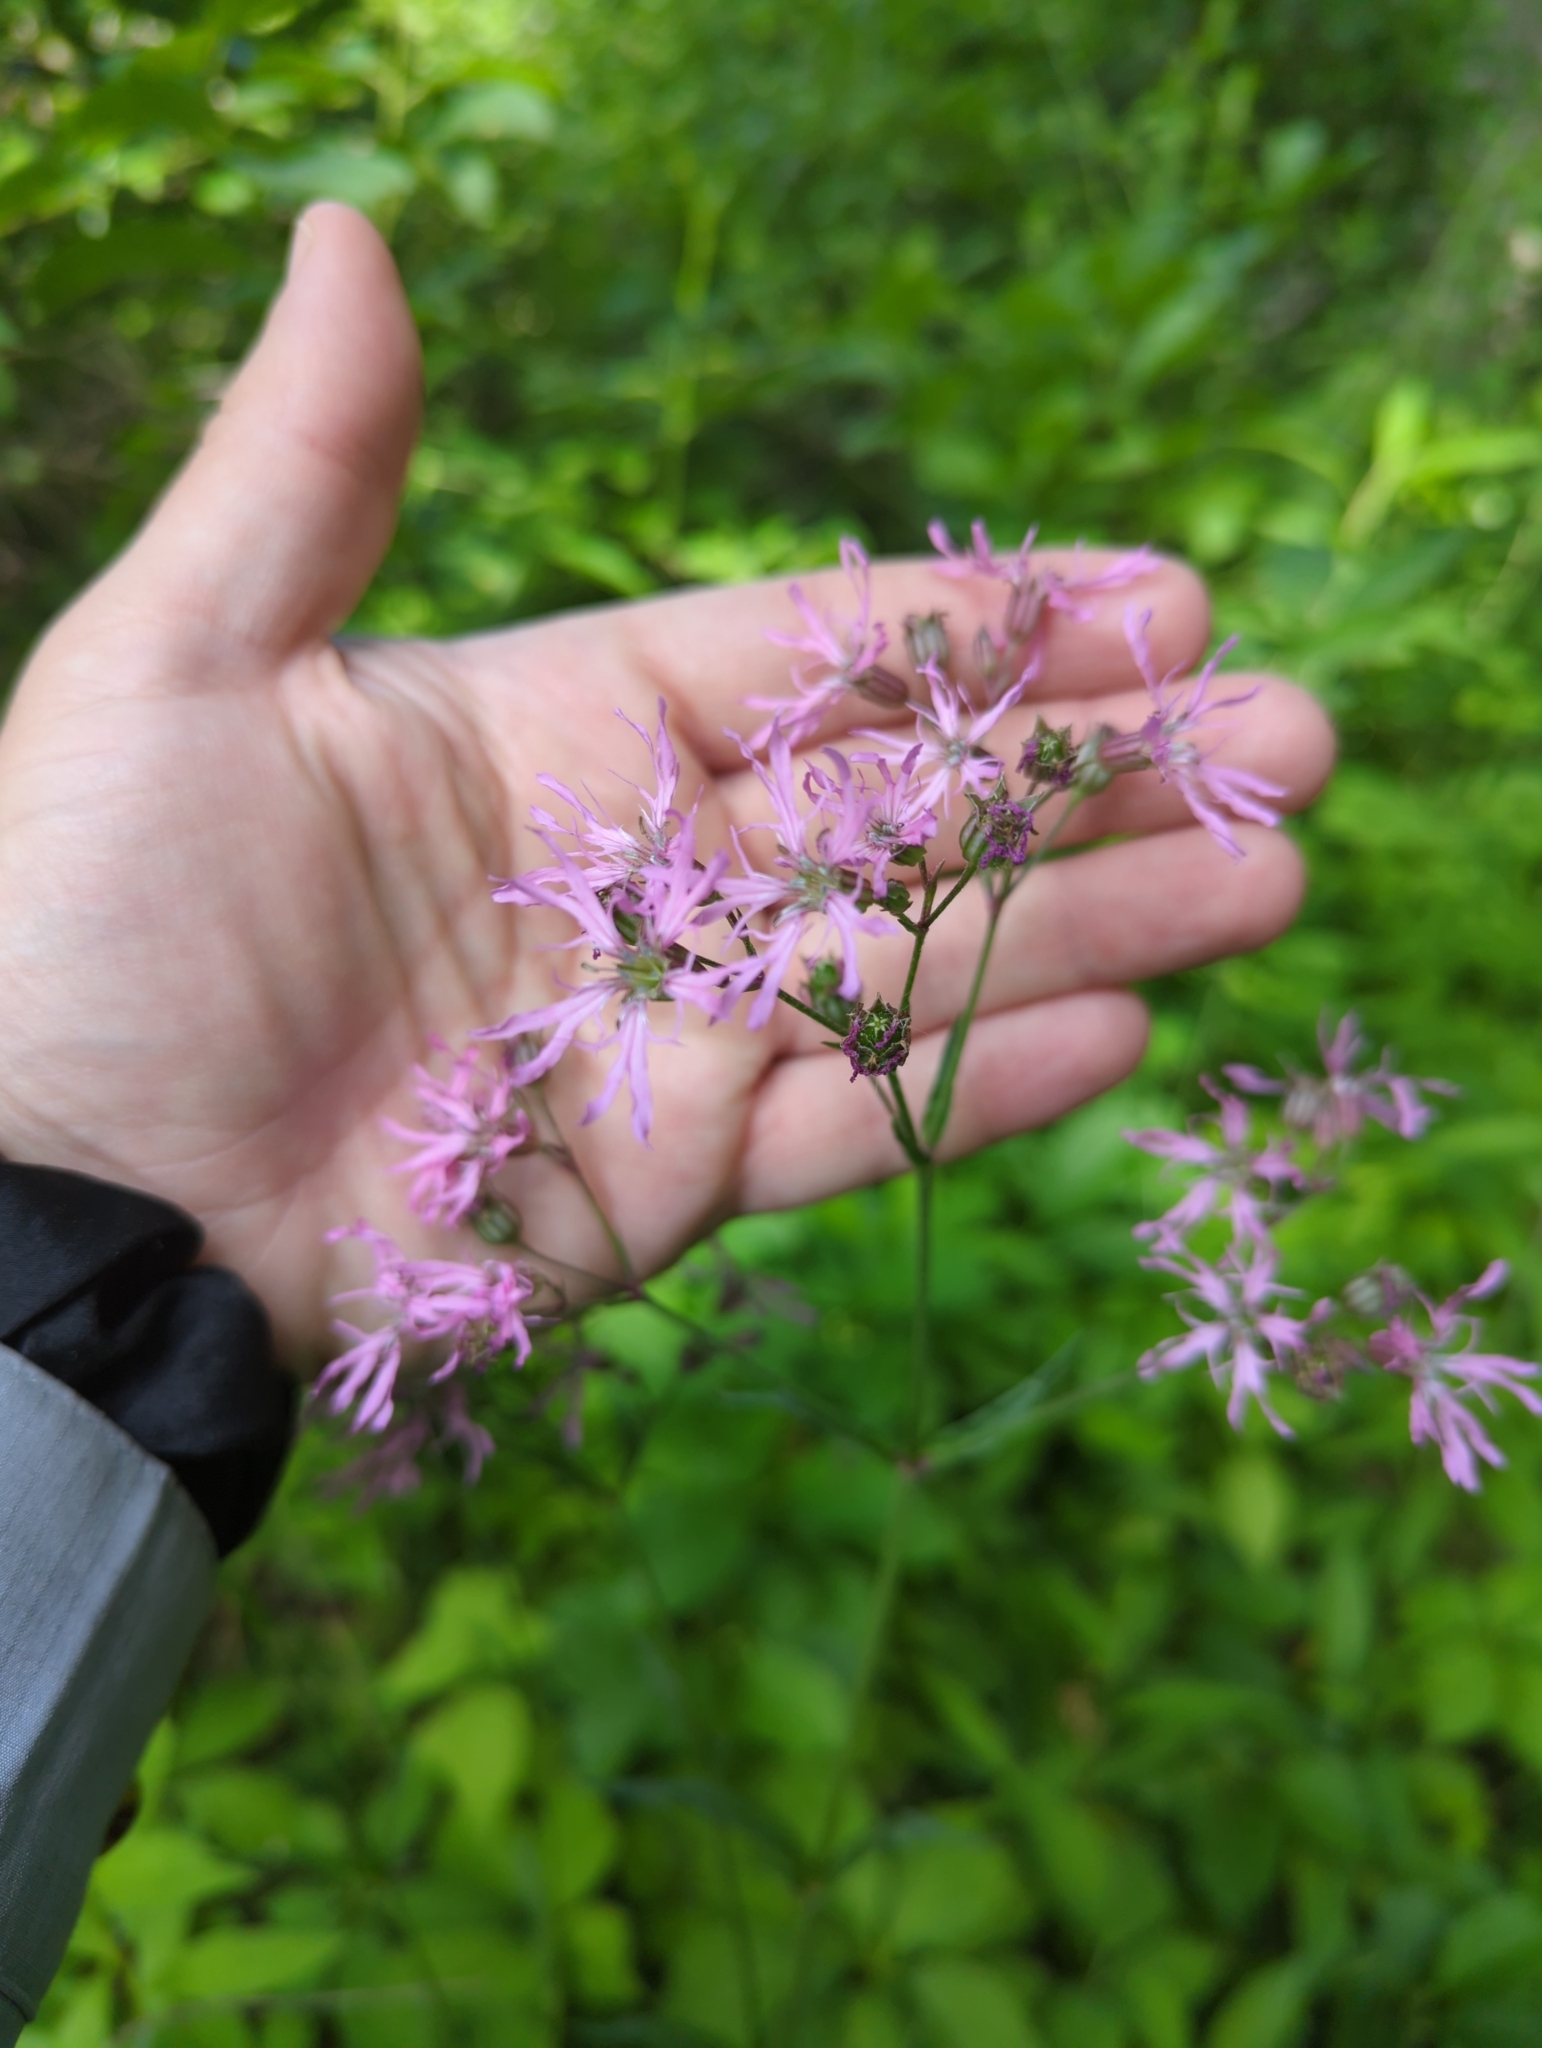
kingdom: Plantae
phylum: Tracheophyta
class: Magnoliopsida
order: Caryophyllales
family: Caryophyllaceae
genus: Silene
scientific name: Silene flos-cuculi
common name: Ragged-robin
